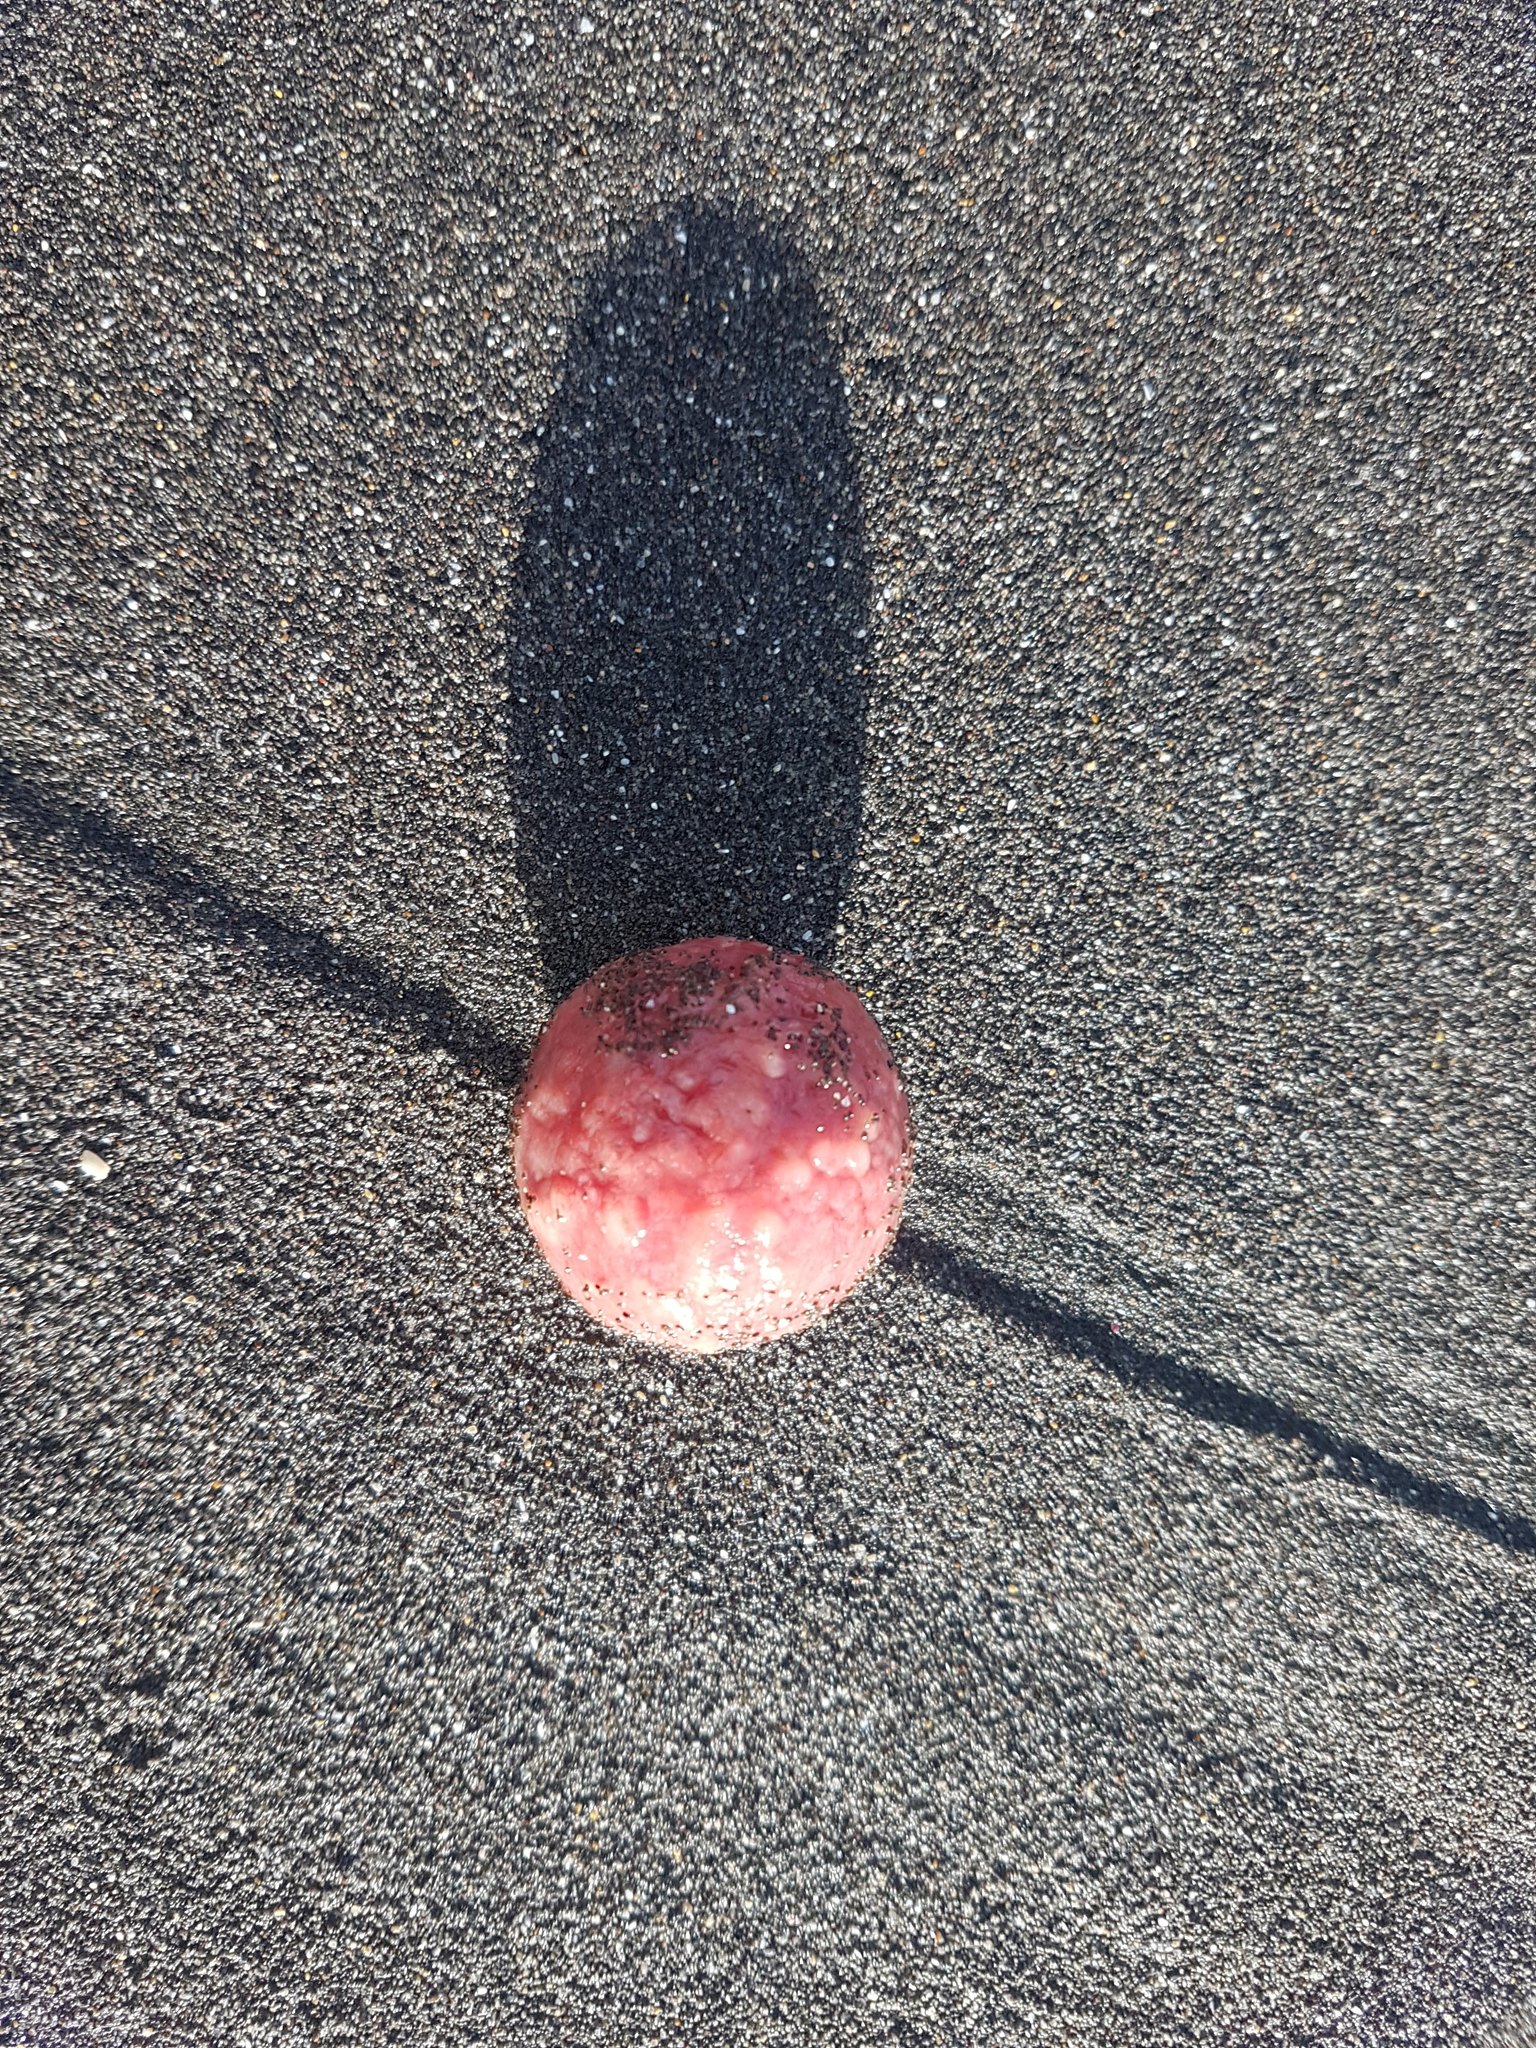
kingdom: Animalia
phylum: Porifera
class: Demospongiae
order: Tethyida
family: Tethyidae
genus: Tethya
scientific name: Tethya bergquistae
